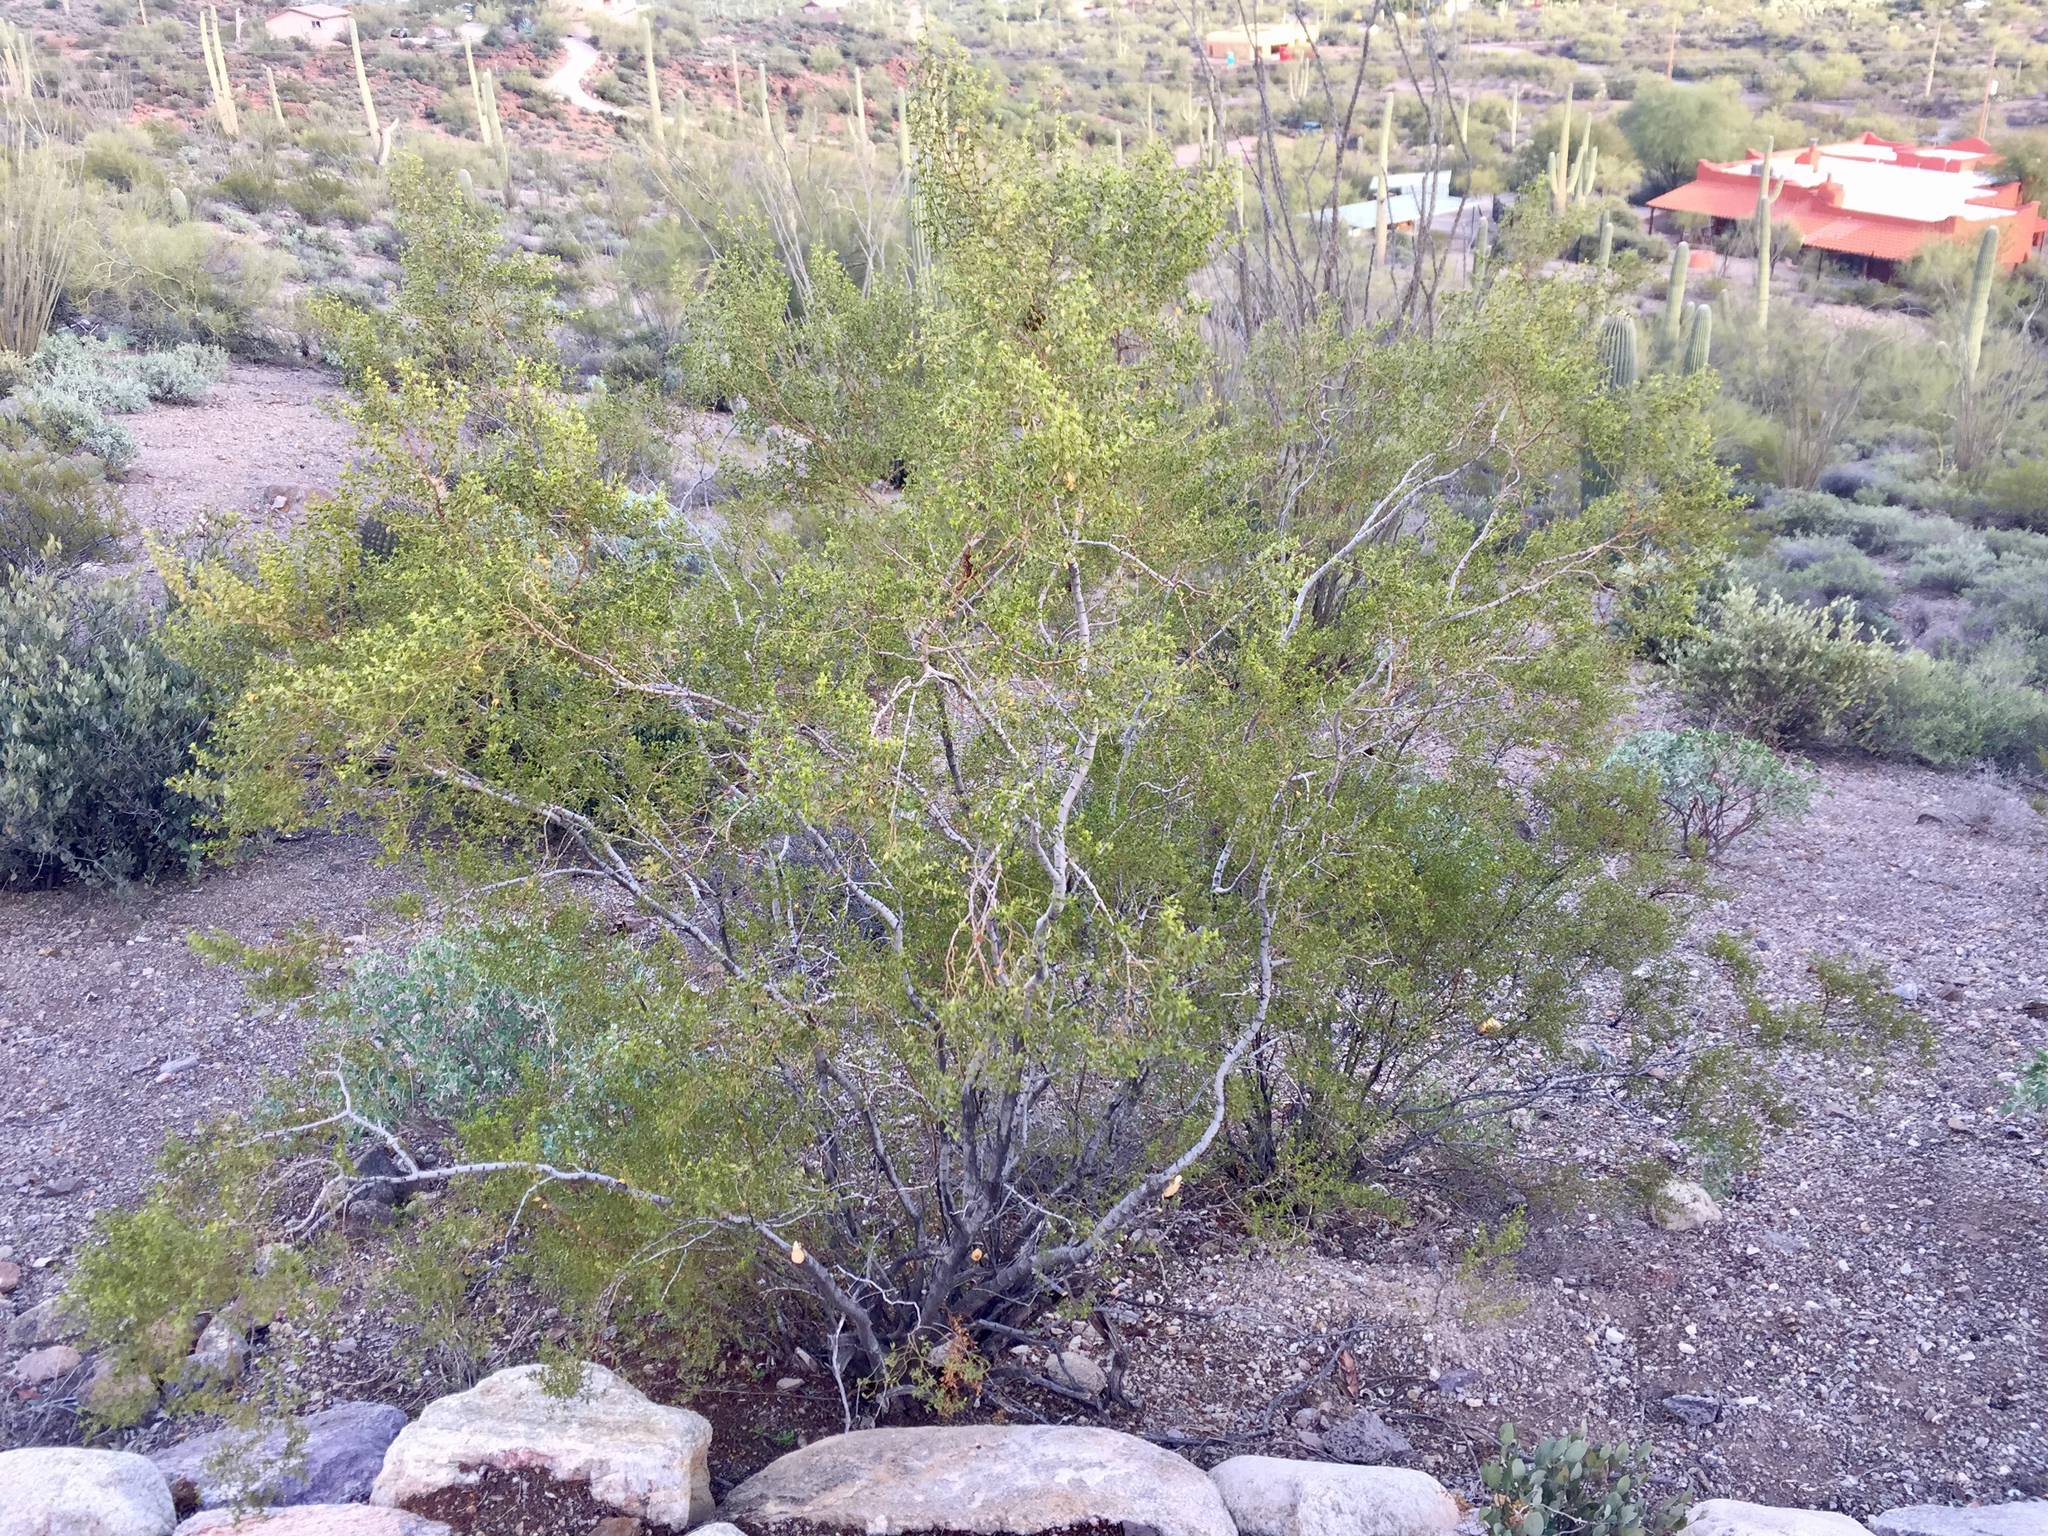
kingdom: Plantae
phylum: Tracheophyta
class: Magnoliopsida
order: Zygophyllales
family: Zygophyllaceae
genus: Larrea
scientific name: Larrea tridentata
